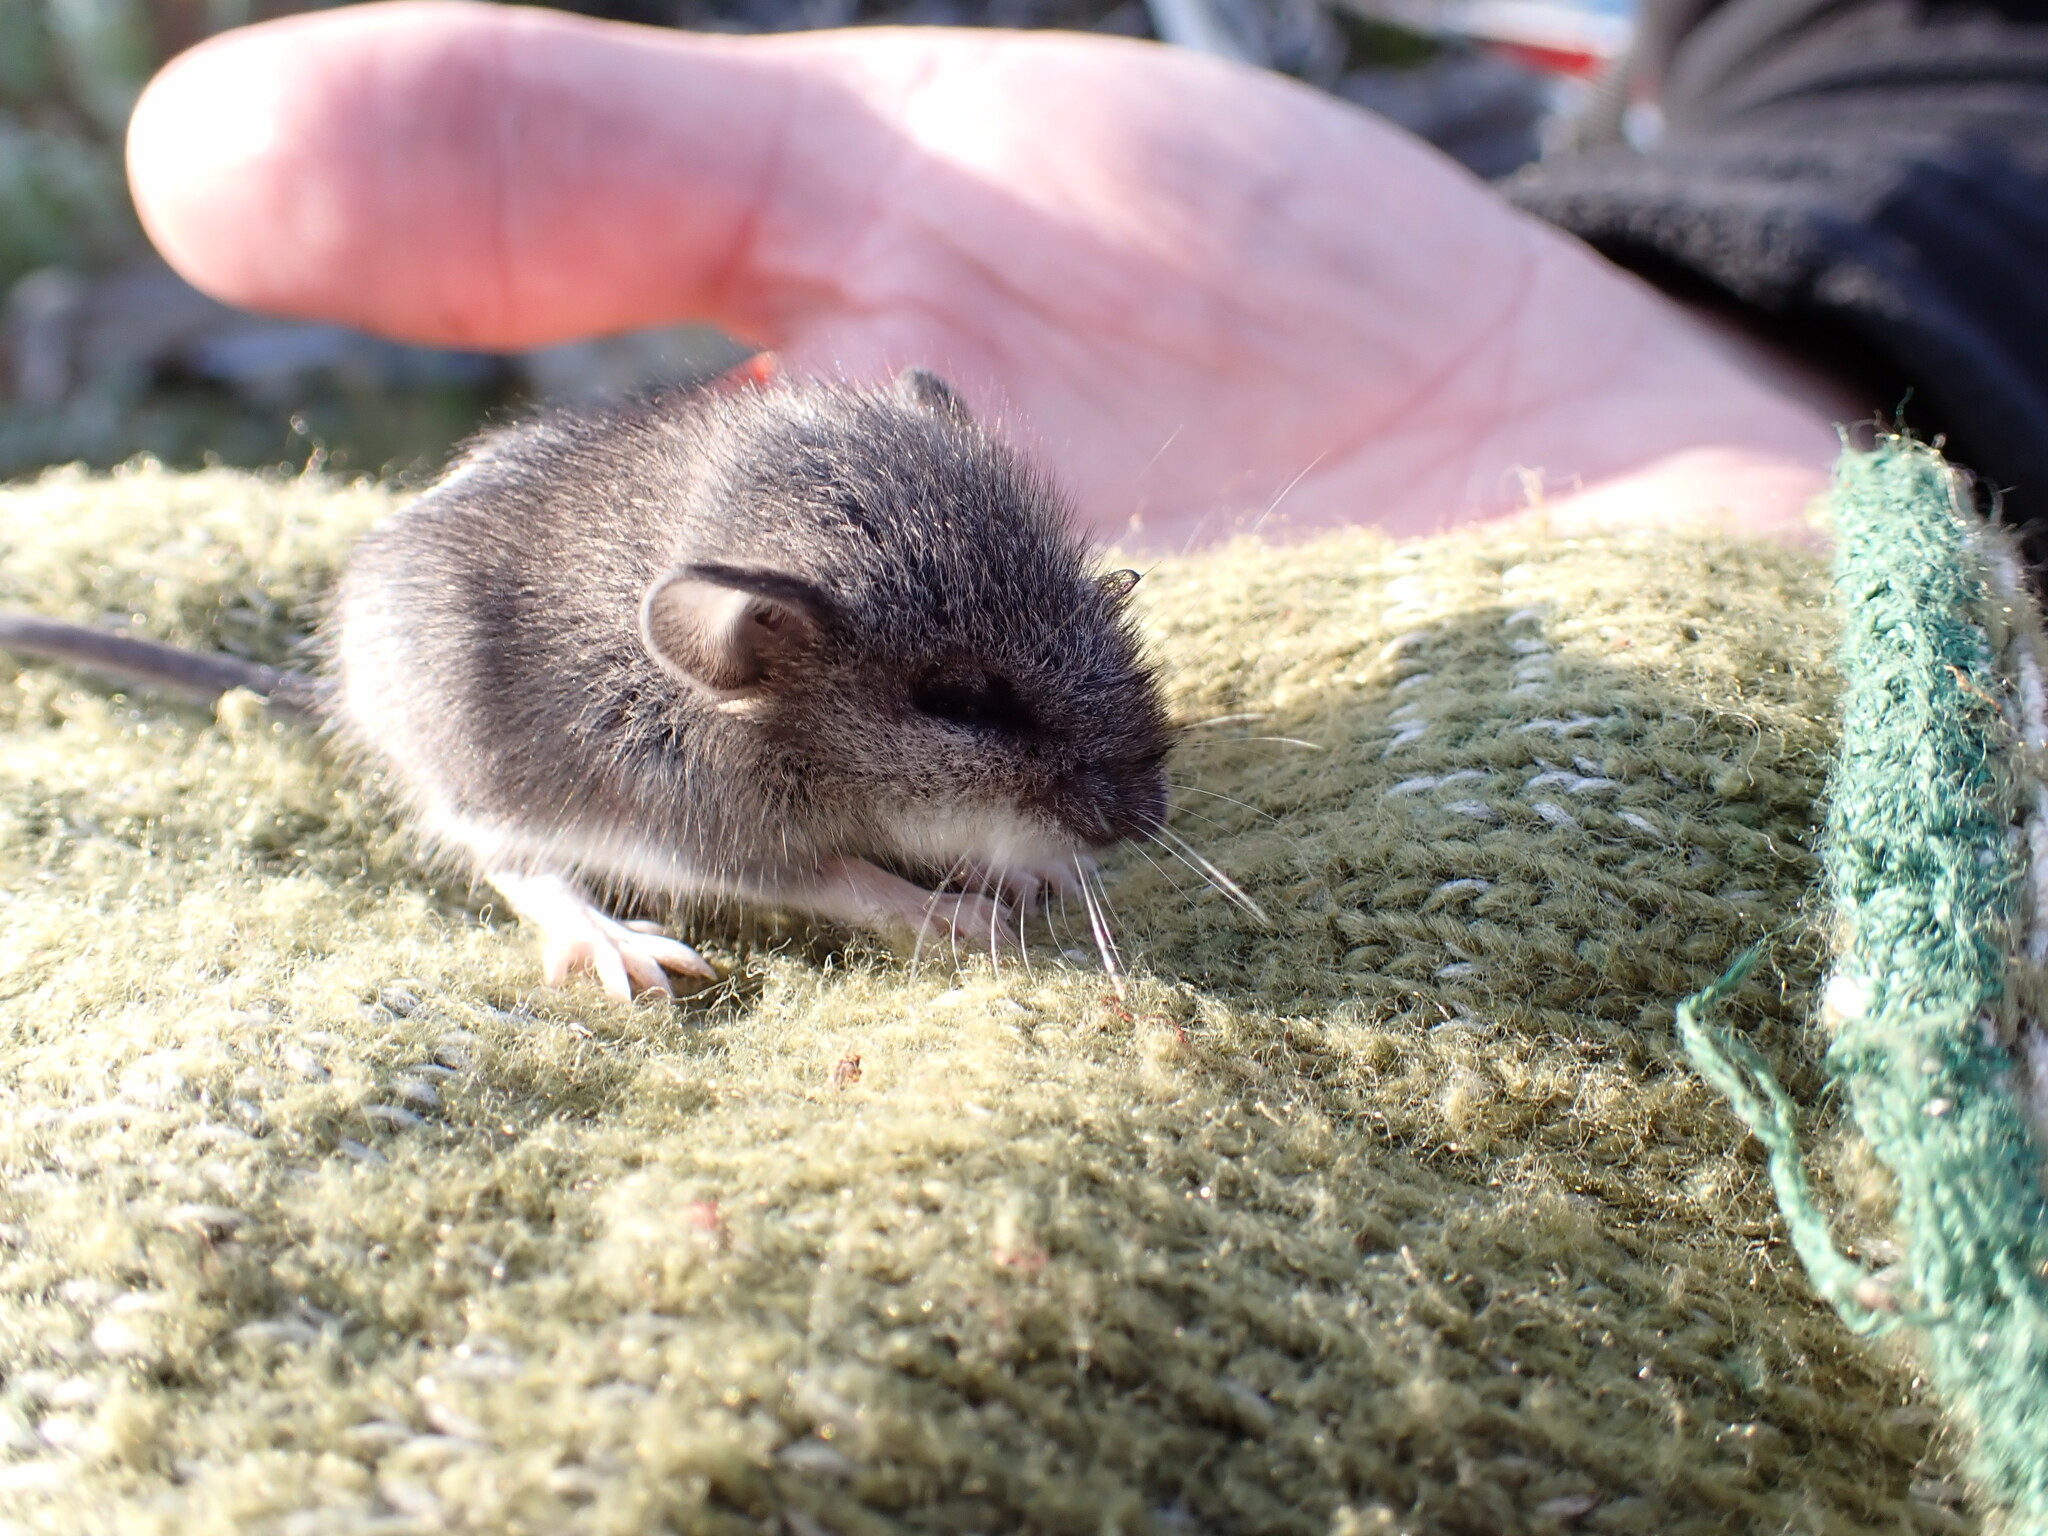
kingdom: Animalia
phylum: Chordata
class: Mammalia
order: Rodentia
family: Cricetidae
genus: Peromyscus
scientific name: Peromyscus maniculatus
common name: Deer mouse
